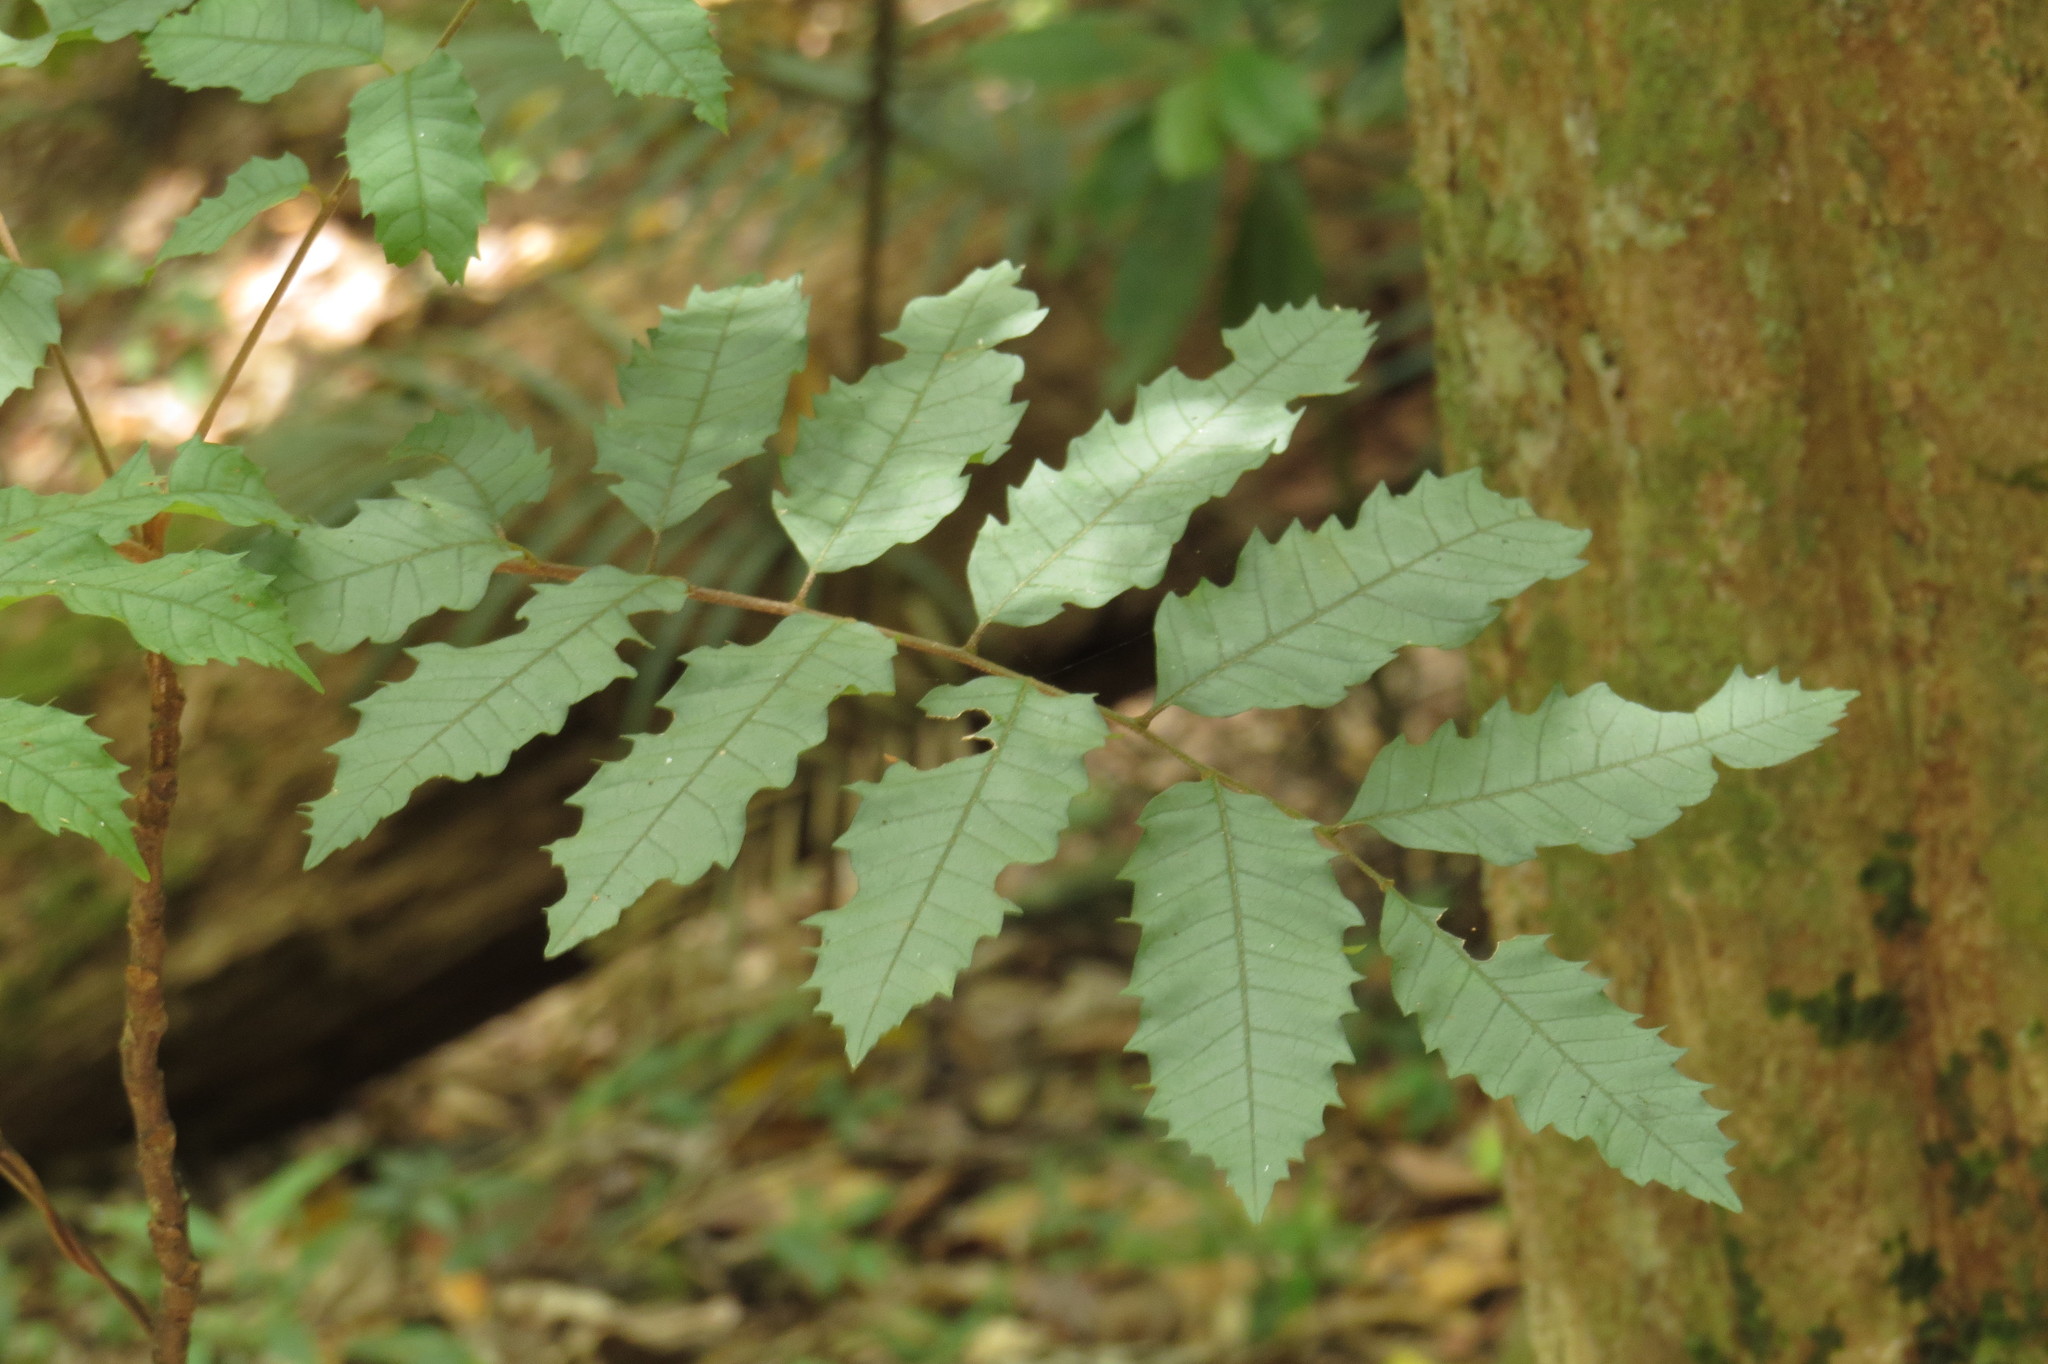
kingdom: Plantae
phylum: Tracheophyta
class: Magnoliopsida
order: Sapindales
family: Sapindaceae
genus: Cupaniopsis
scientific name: Cupaniopsis flagelliformis
